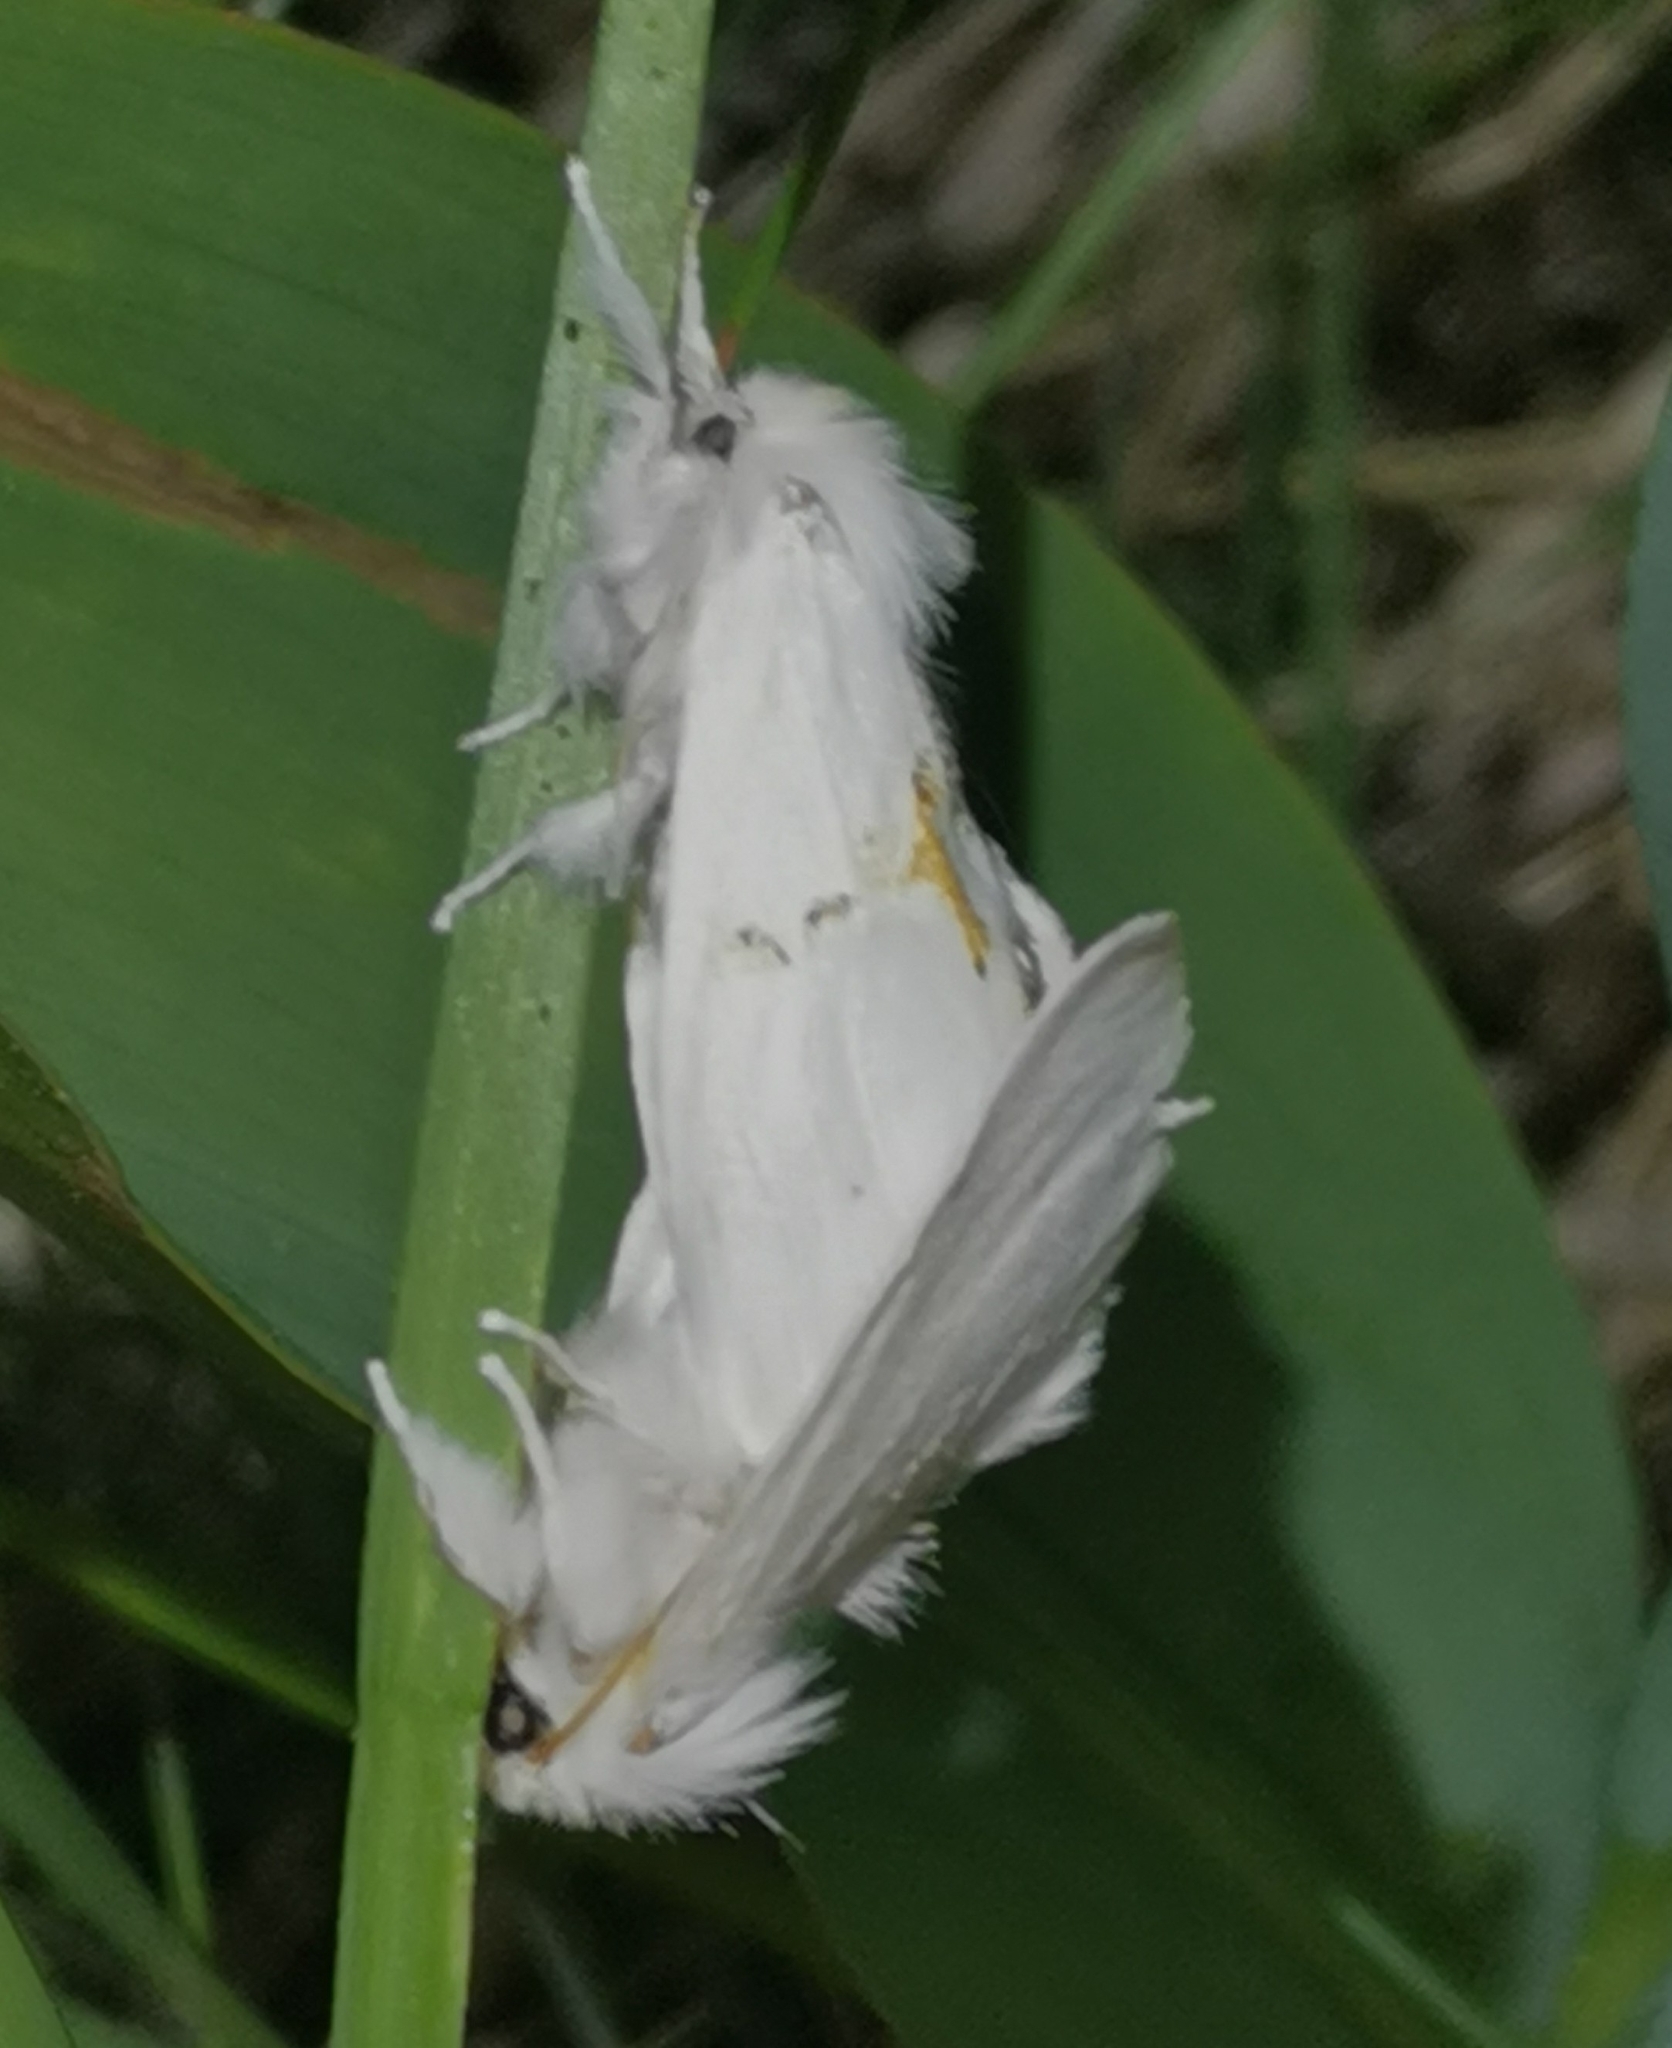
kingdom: Animalia
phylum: Arthropoda
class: Insecta
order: Lepidoptera
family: Notodontidae
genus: Leucodonta
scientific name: Leucodonta bicoloria
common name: White prominent
